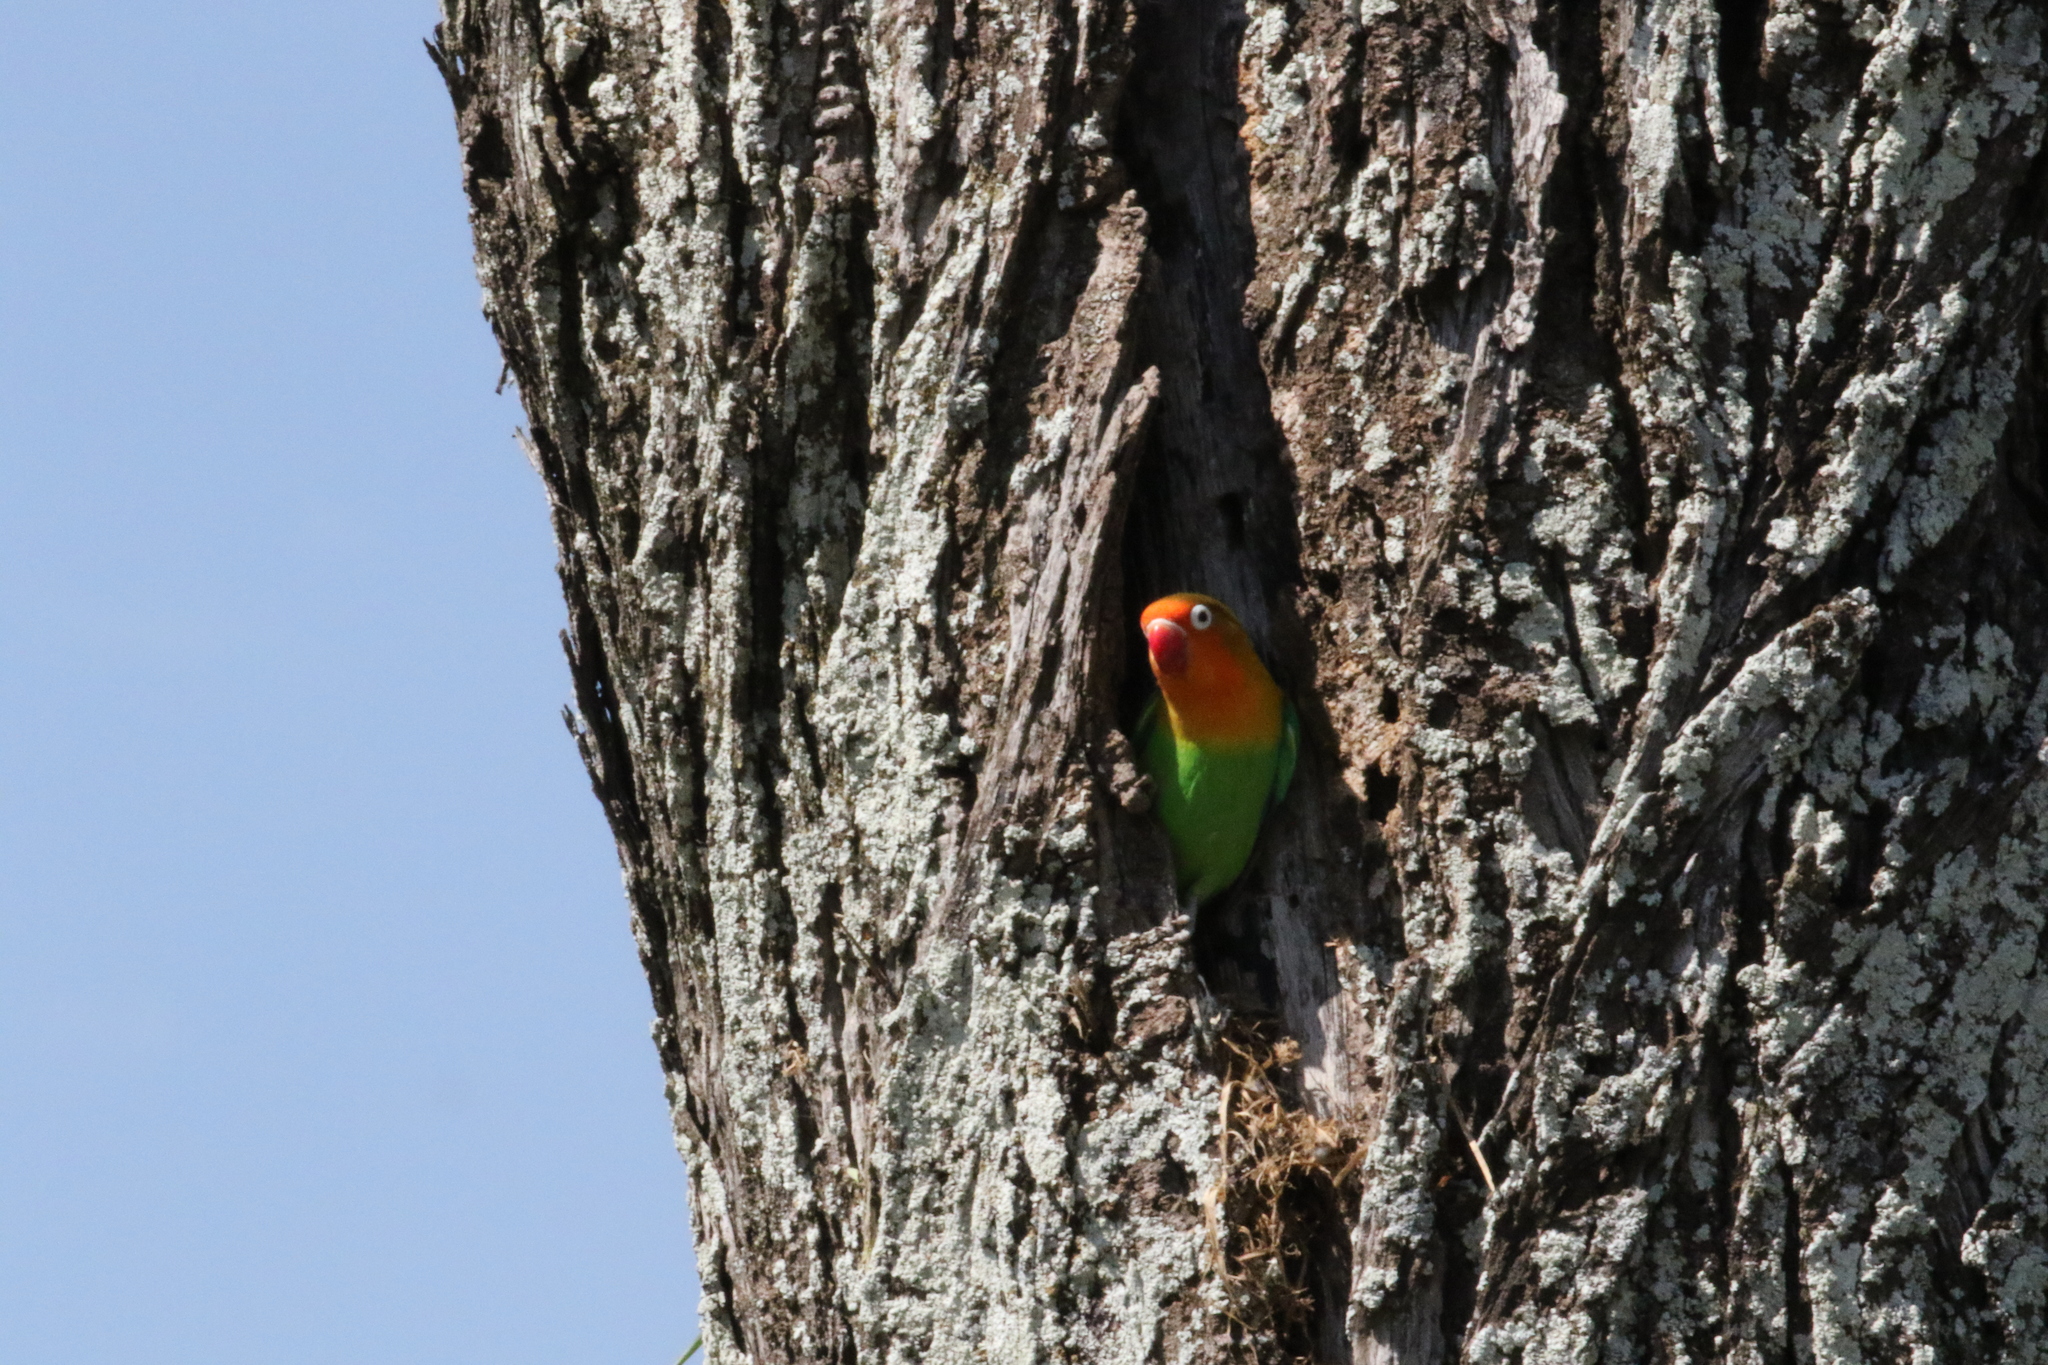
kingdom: Animalia
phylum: Chordata
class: Aves
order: Psittaciformes
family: Psittacidae
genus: Agapornis
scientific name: Agapornis fischeri
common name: Fischer's lovebird
